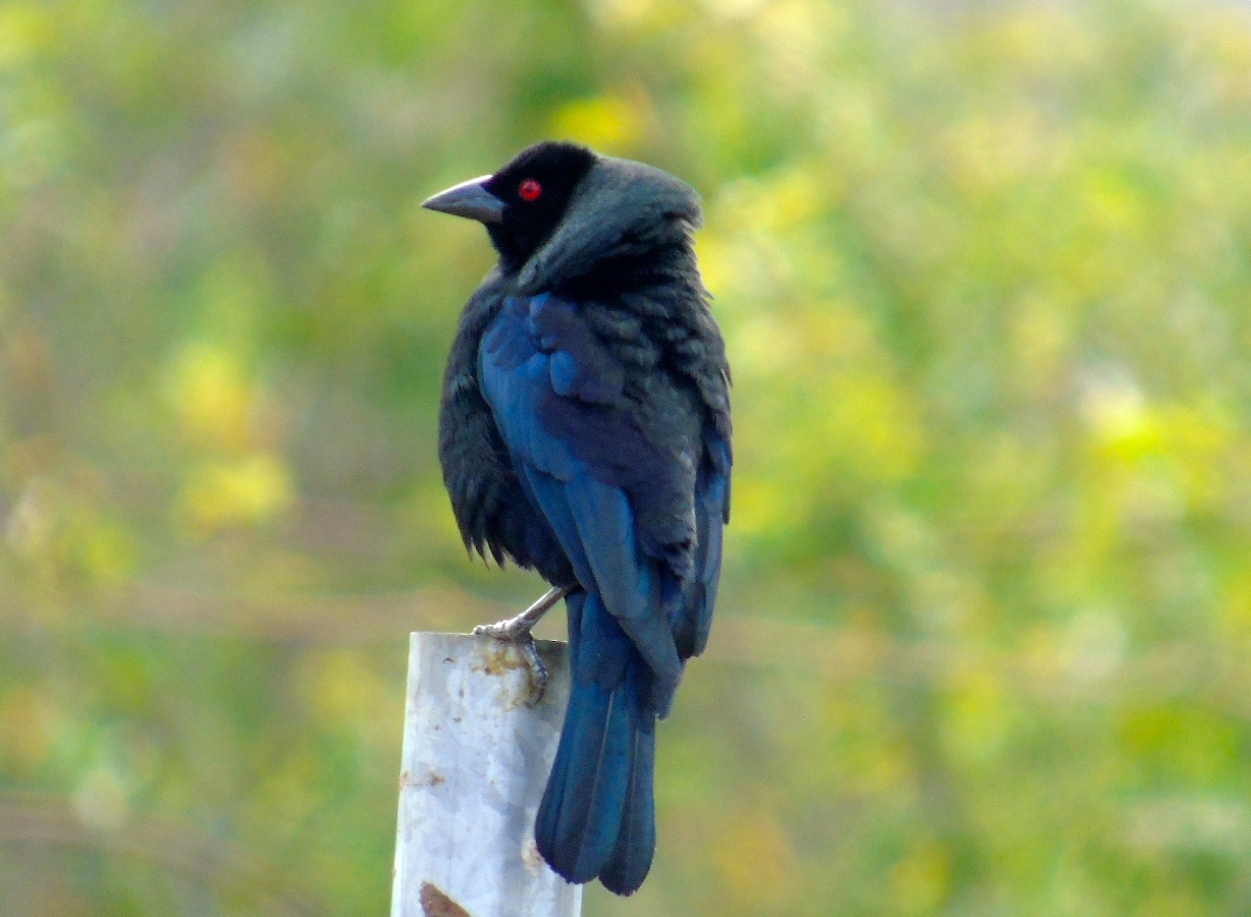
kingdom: Animalia
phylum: Chordata
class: Aves
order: Passeriformes
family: Icteridae
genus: Molothrus
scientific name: Molothrus aeneus
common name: Bronzed cowbird
